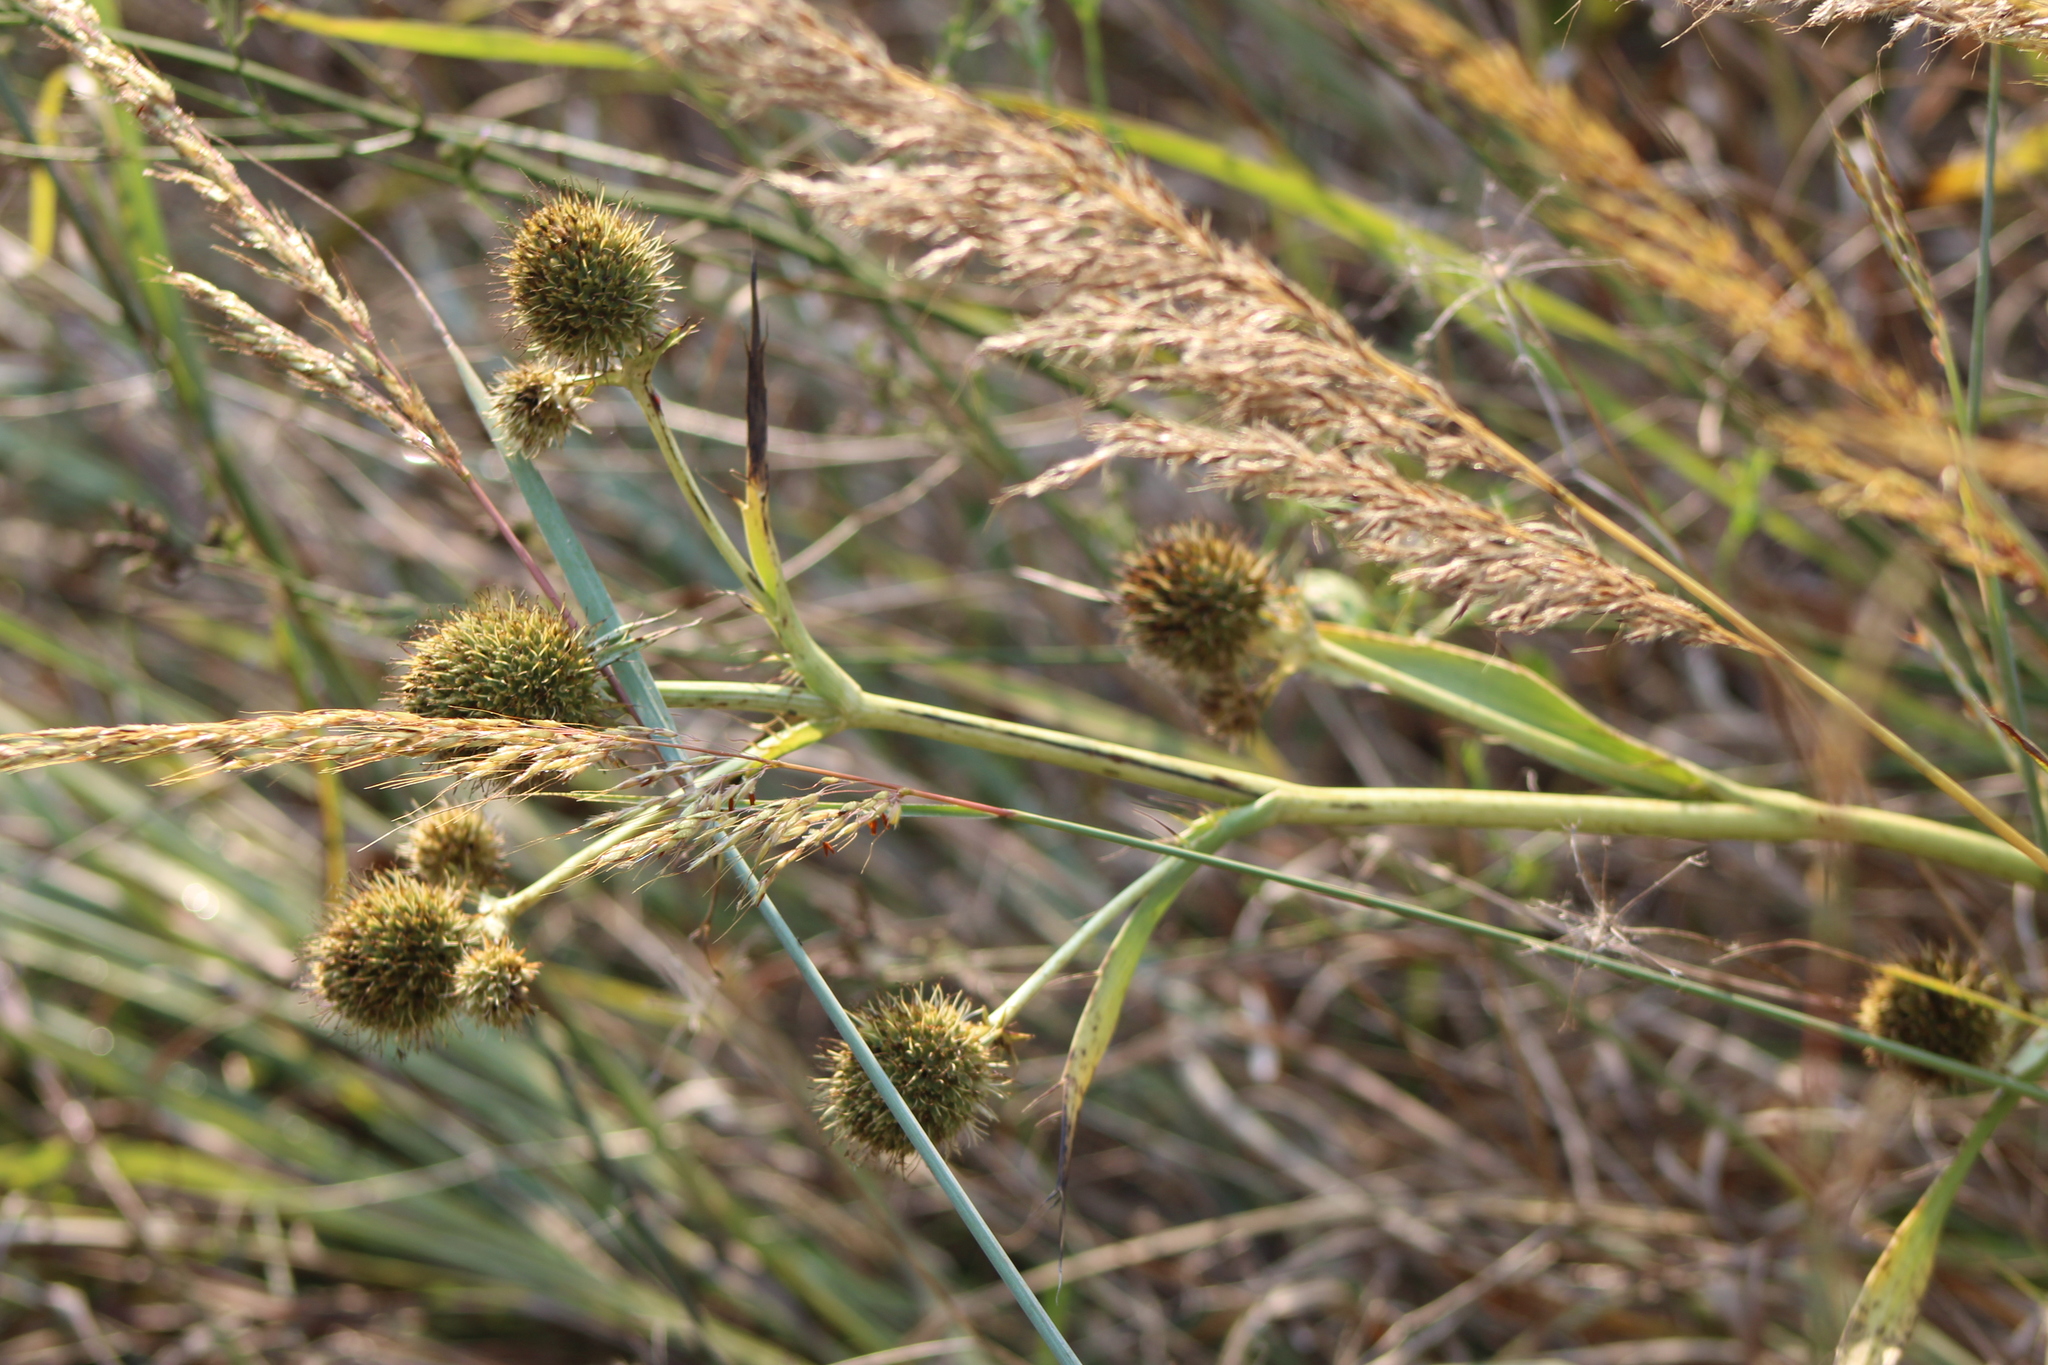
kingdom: Plantae
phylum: Tracheophyta
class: Magnoliopsida
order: Apiales
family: Apiaceae
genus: Eryngium
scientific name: Eryngium yuccifolium
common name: Button eryngo
